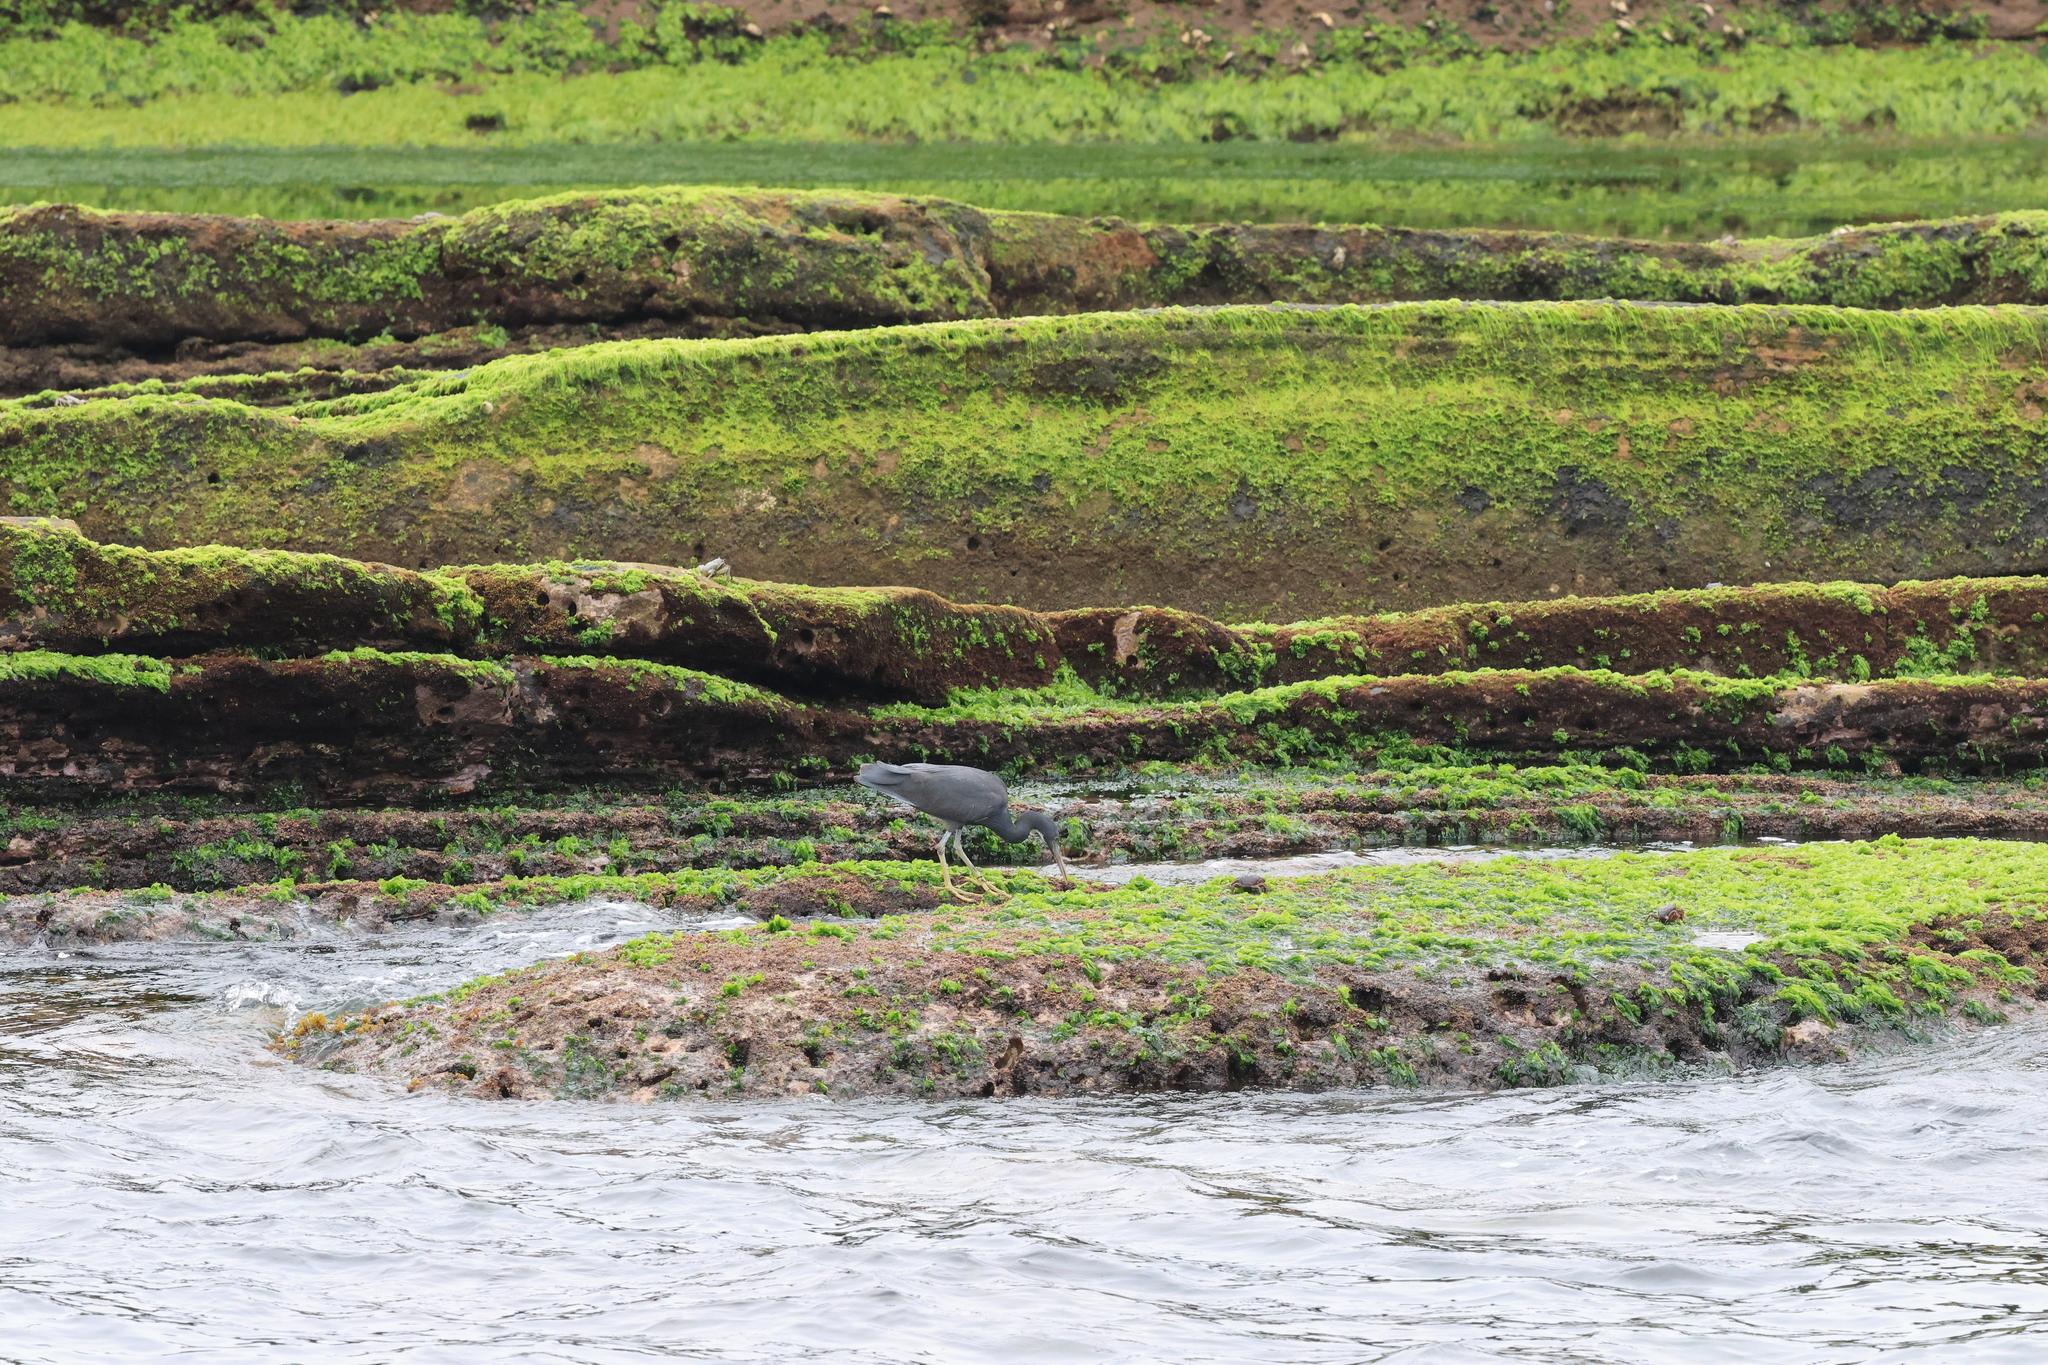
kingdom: Animalia
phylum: Chordata
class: Aves
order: Pelecaniformes
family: Ardeidae
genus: Egretta
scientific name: Egretta sacra
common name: Pacific reef heron
